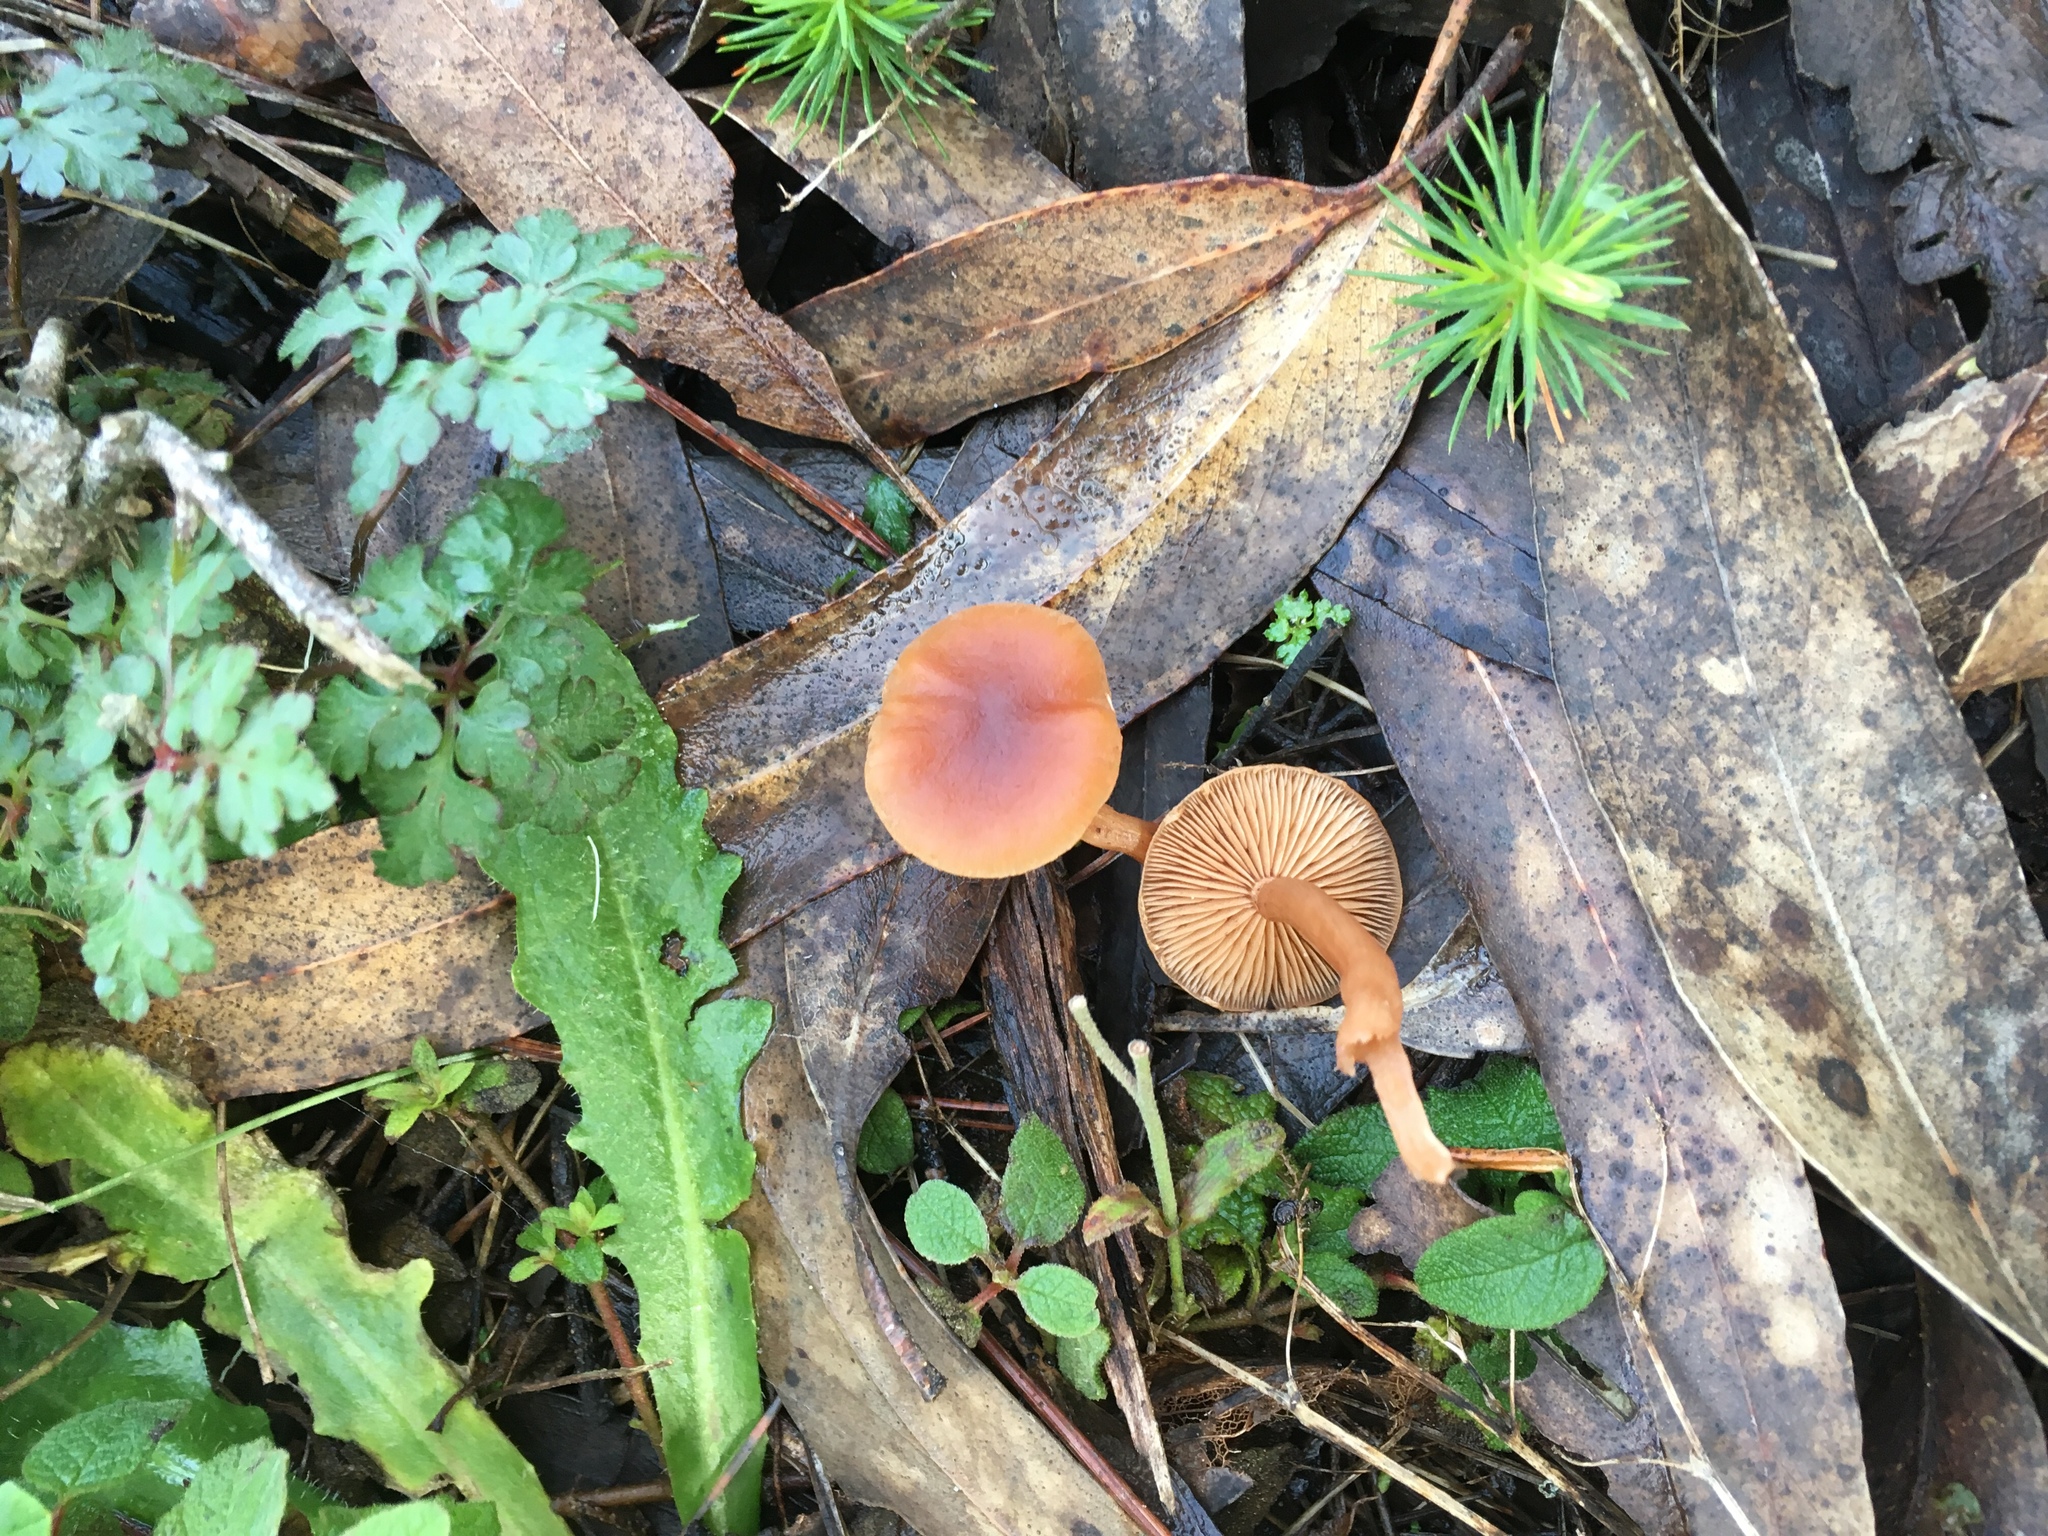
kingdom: Fungi
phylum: Basidiomycota
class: Agaricomycetes
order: Agaricales
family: Tubariaceae
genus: Tubaria
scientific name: Tubaria furfuracea
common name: Scurfy twiglet
